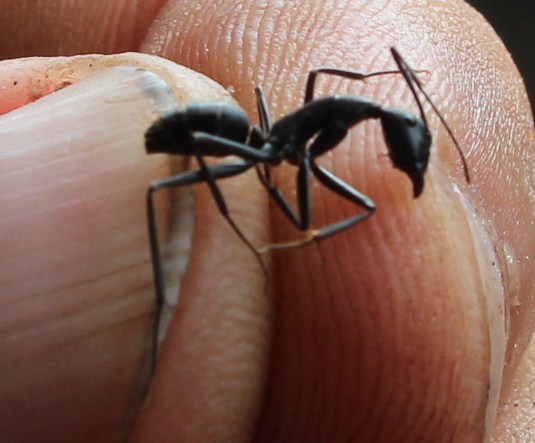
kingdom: Animalia
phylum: Arthropoda
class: Insecta
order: Hymenoptera
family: Formicidae
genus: Camponotus
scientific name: Camponotus petersii
